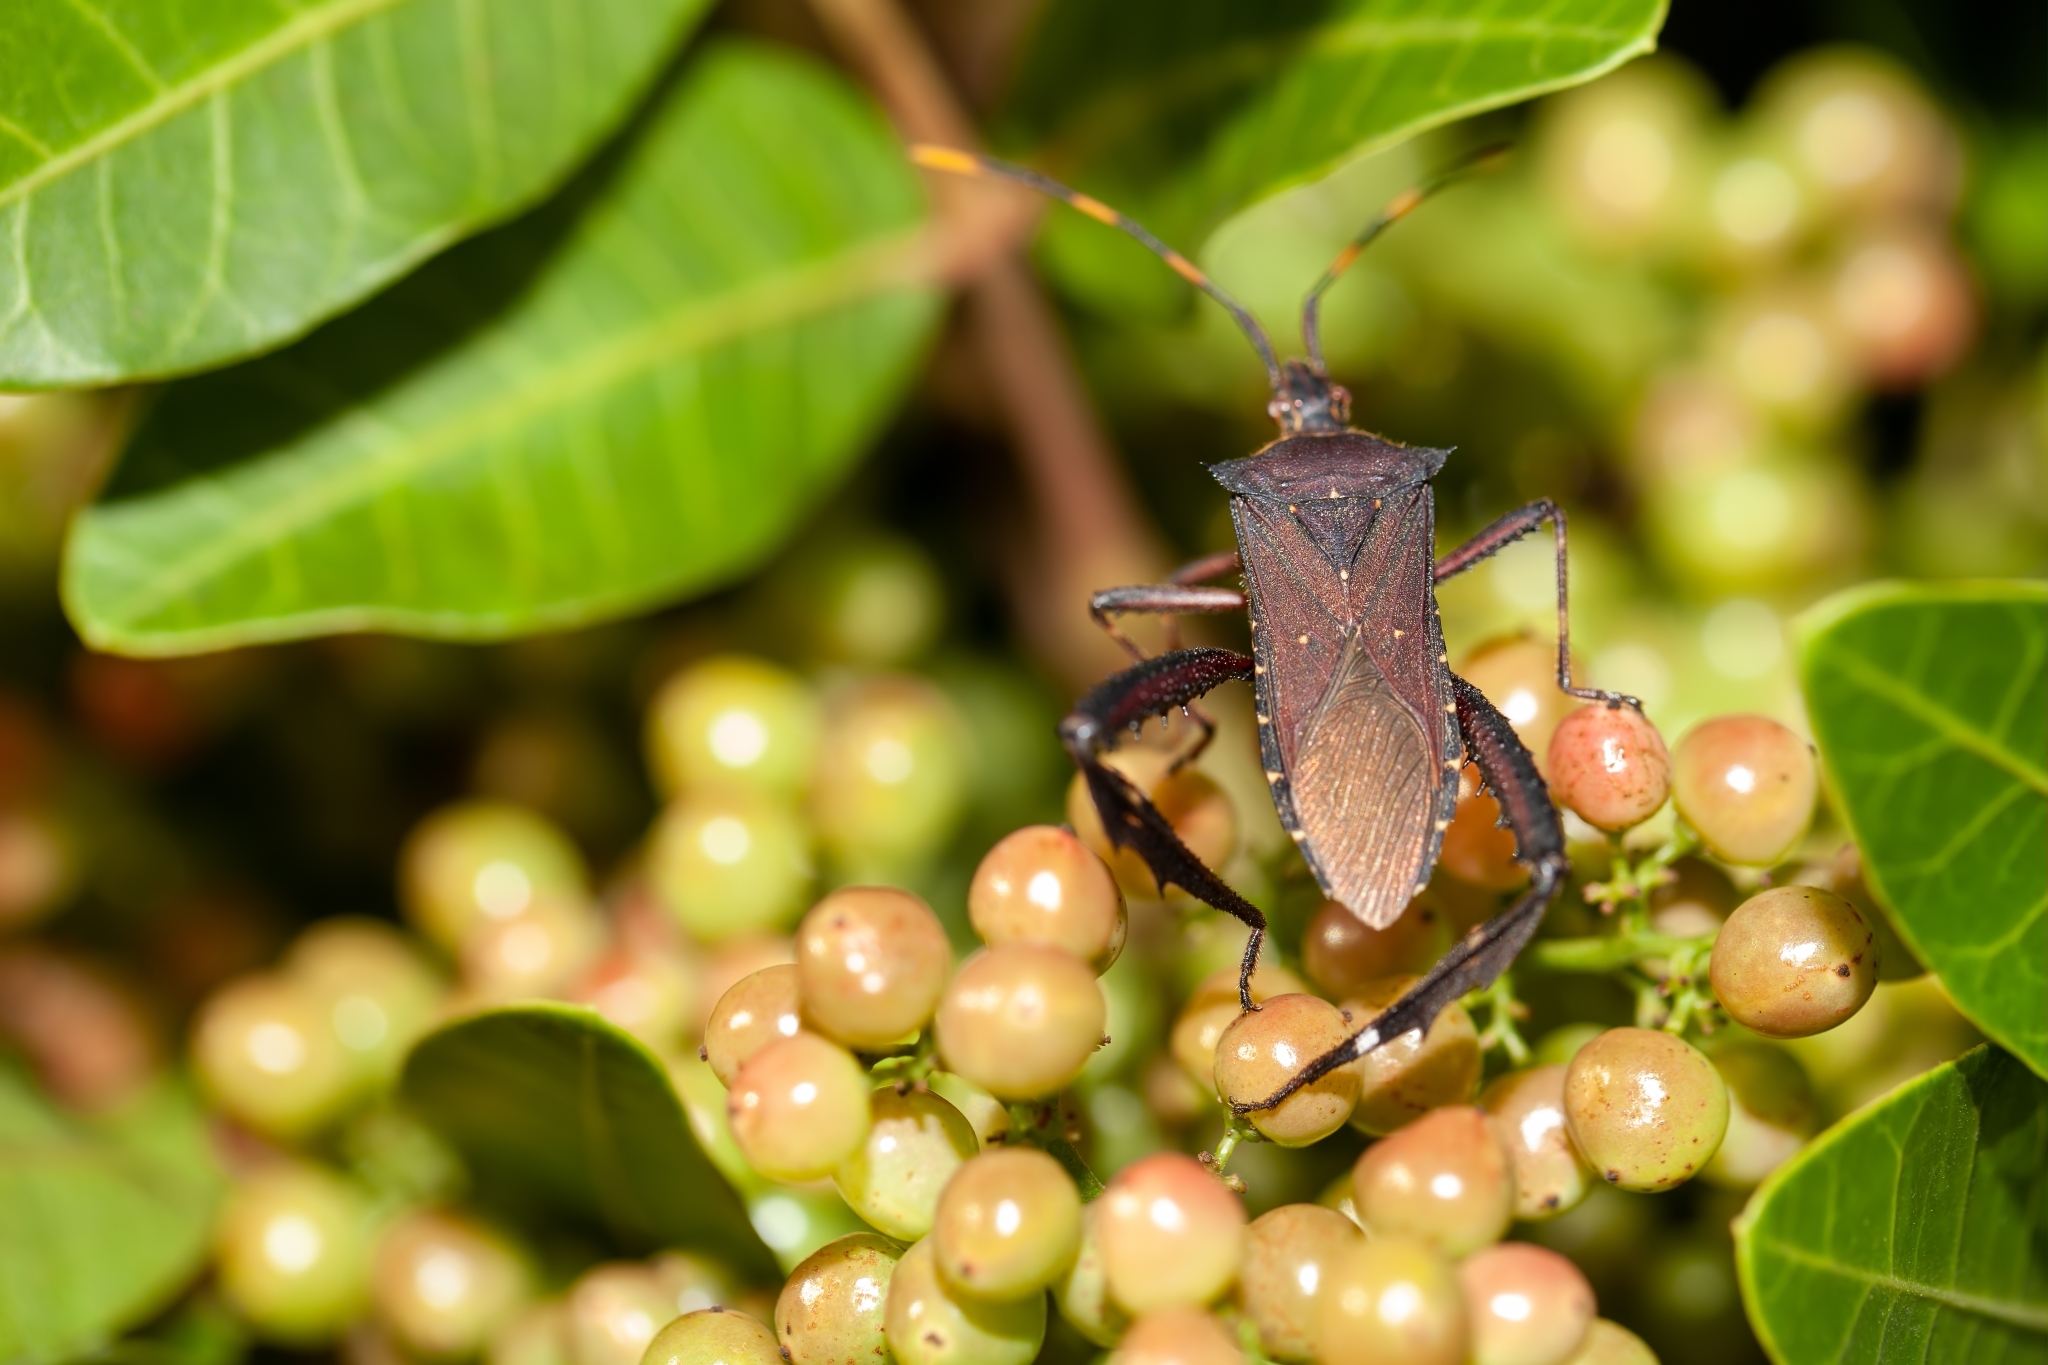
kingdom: Animalia
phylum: Arthropoda
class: Insecta
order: Hemiptera
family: Coreidae
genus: Leptoglossus
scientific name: Leptoglossus gonagra
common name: Citron bug
